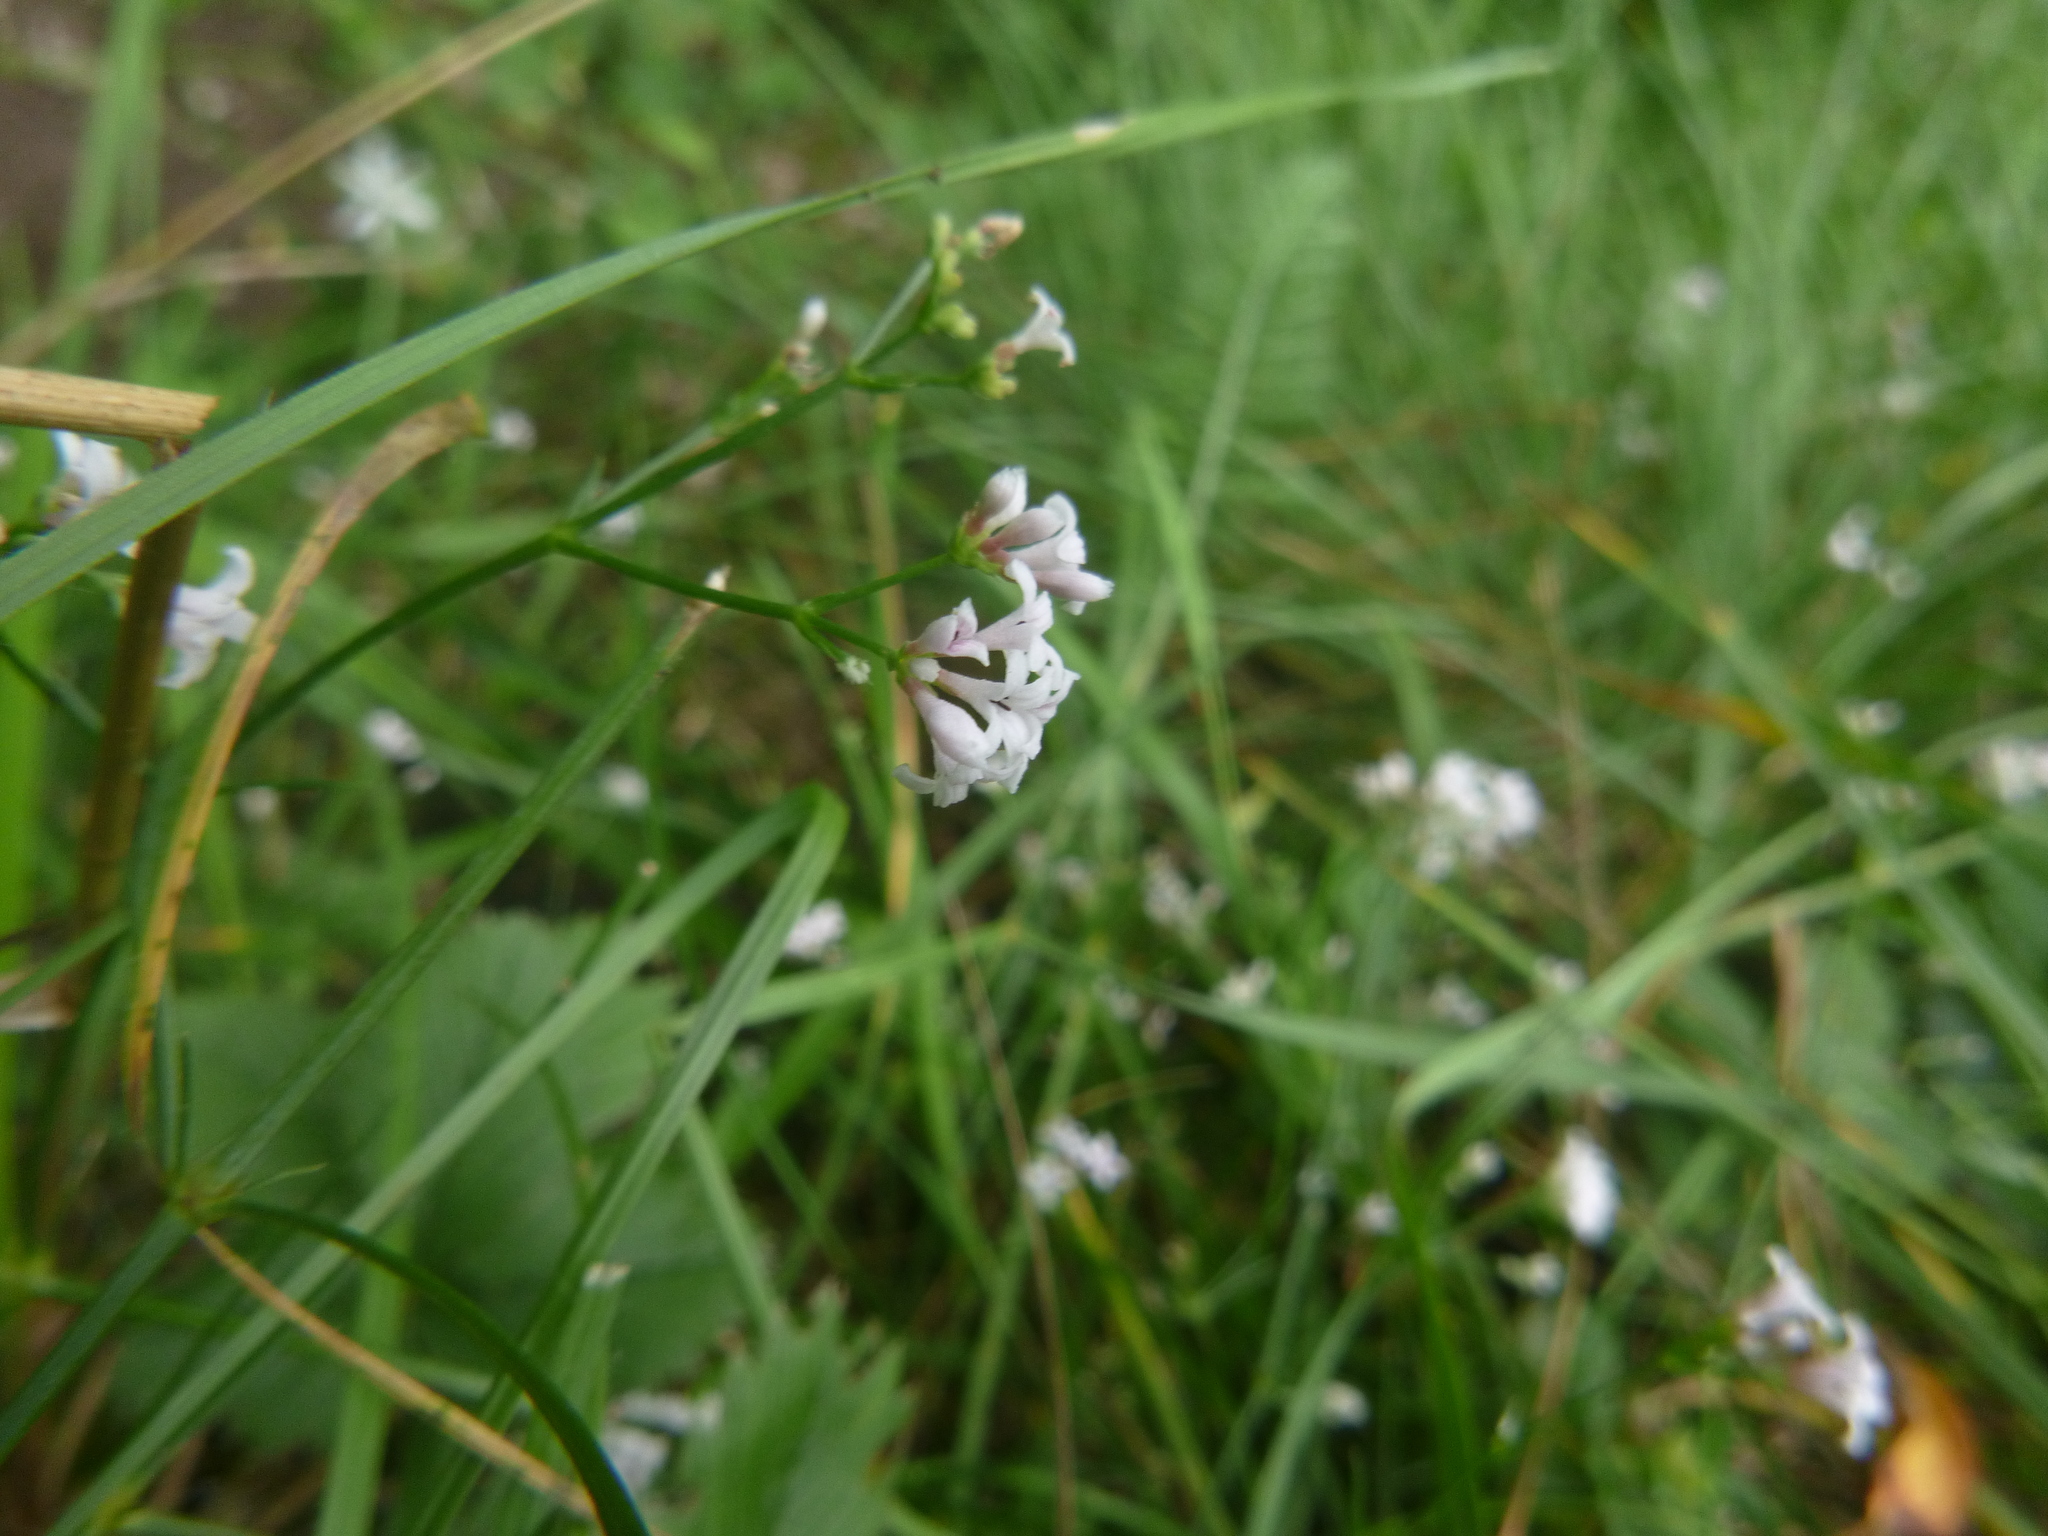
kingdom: Plantae
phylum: Tracheophyta
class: Magnoliopsida
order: Gentianales
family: Rubiaceae
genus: Cynanchica
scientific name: Cynanchica pyrenaica
